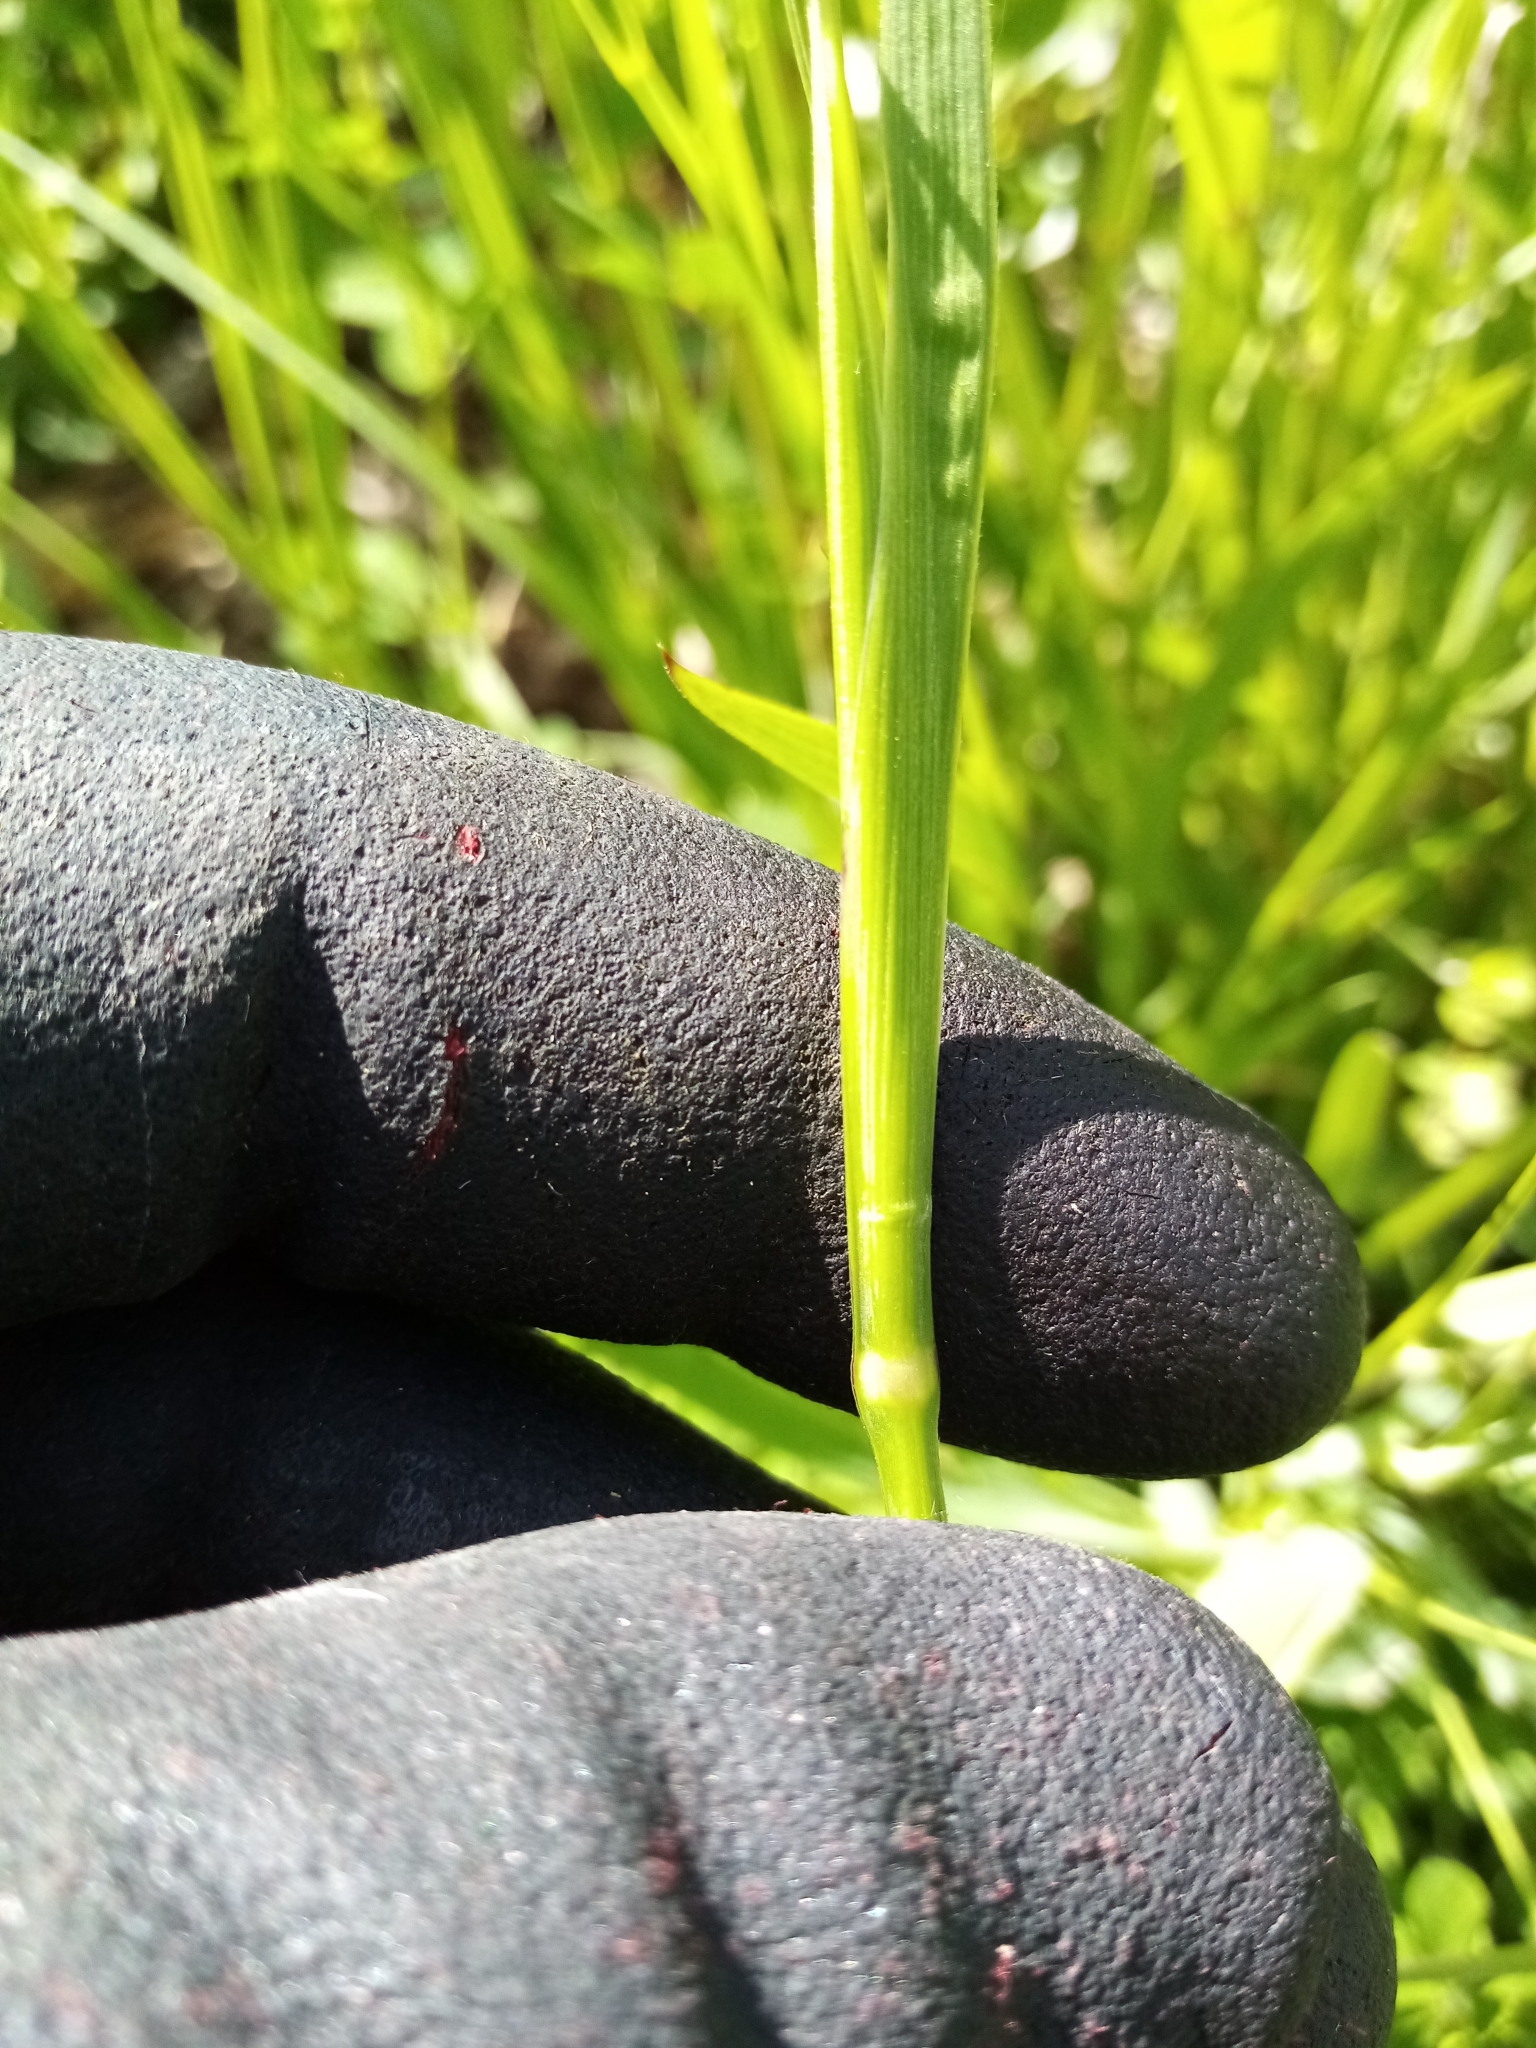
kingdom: Plantae
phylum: Tracheophyta
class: Liliopsida
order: Asparagales
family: Iridaceae
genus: Sisyrinchium
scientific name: Sisyrinchium micranthum
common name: Bermuda pigroot
